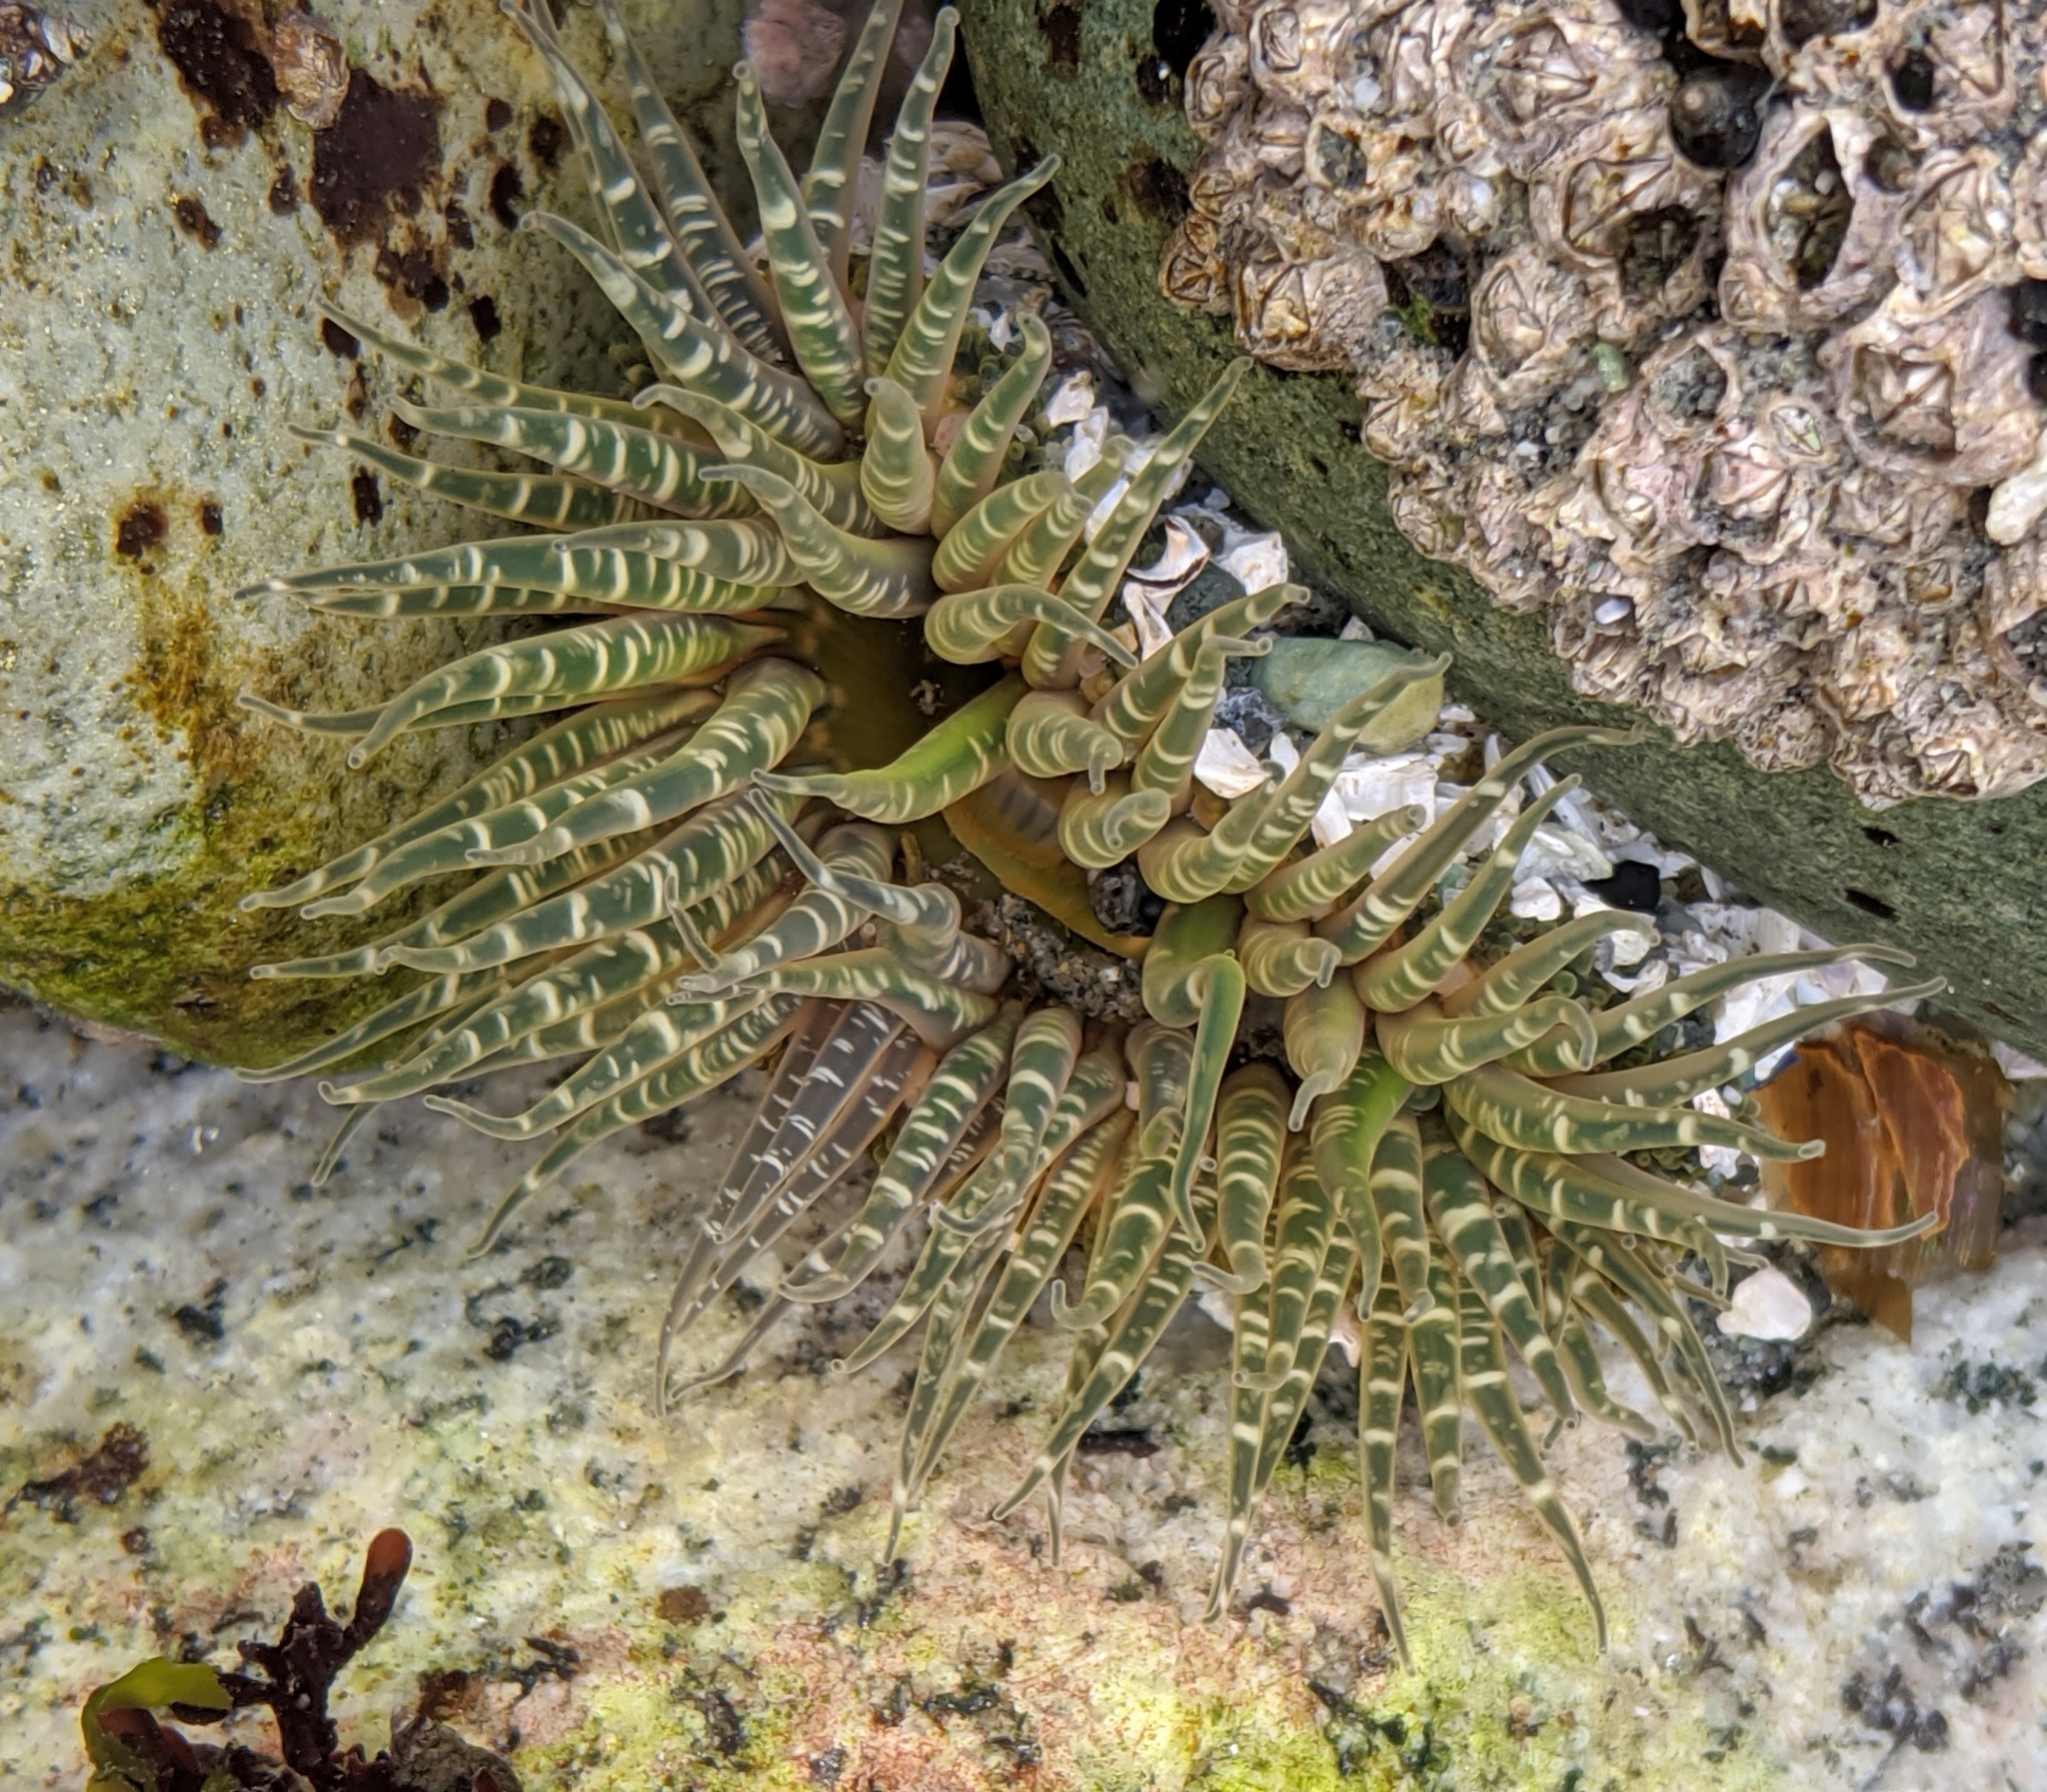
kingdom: Animalia
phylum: Cnidaria
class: Anthozoa
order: Actiniaria
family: Actiniidae
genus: Anthopleura
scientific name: Anthopleura artemisia
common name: Buried sea anemone
